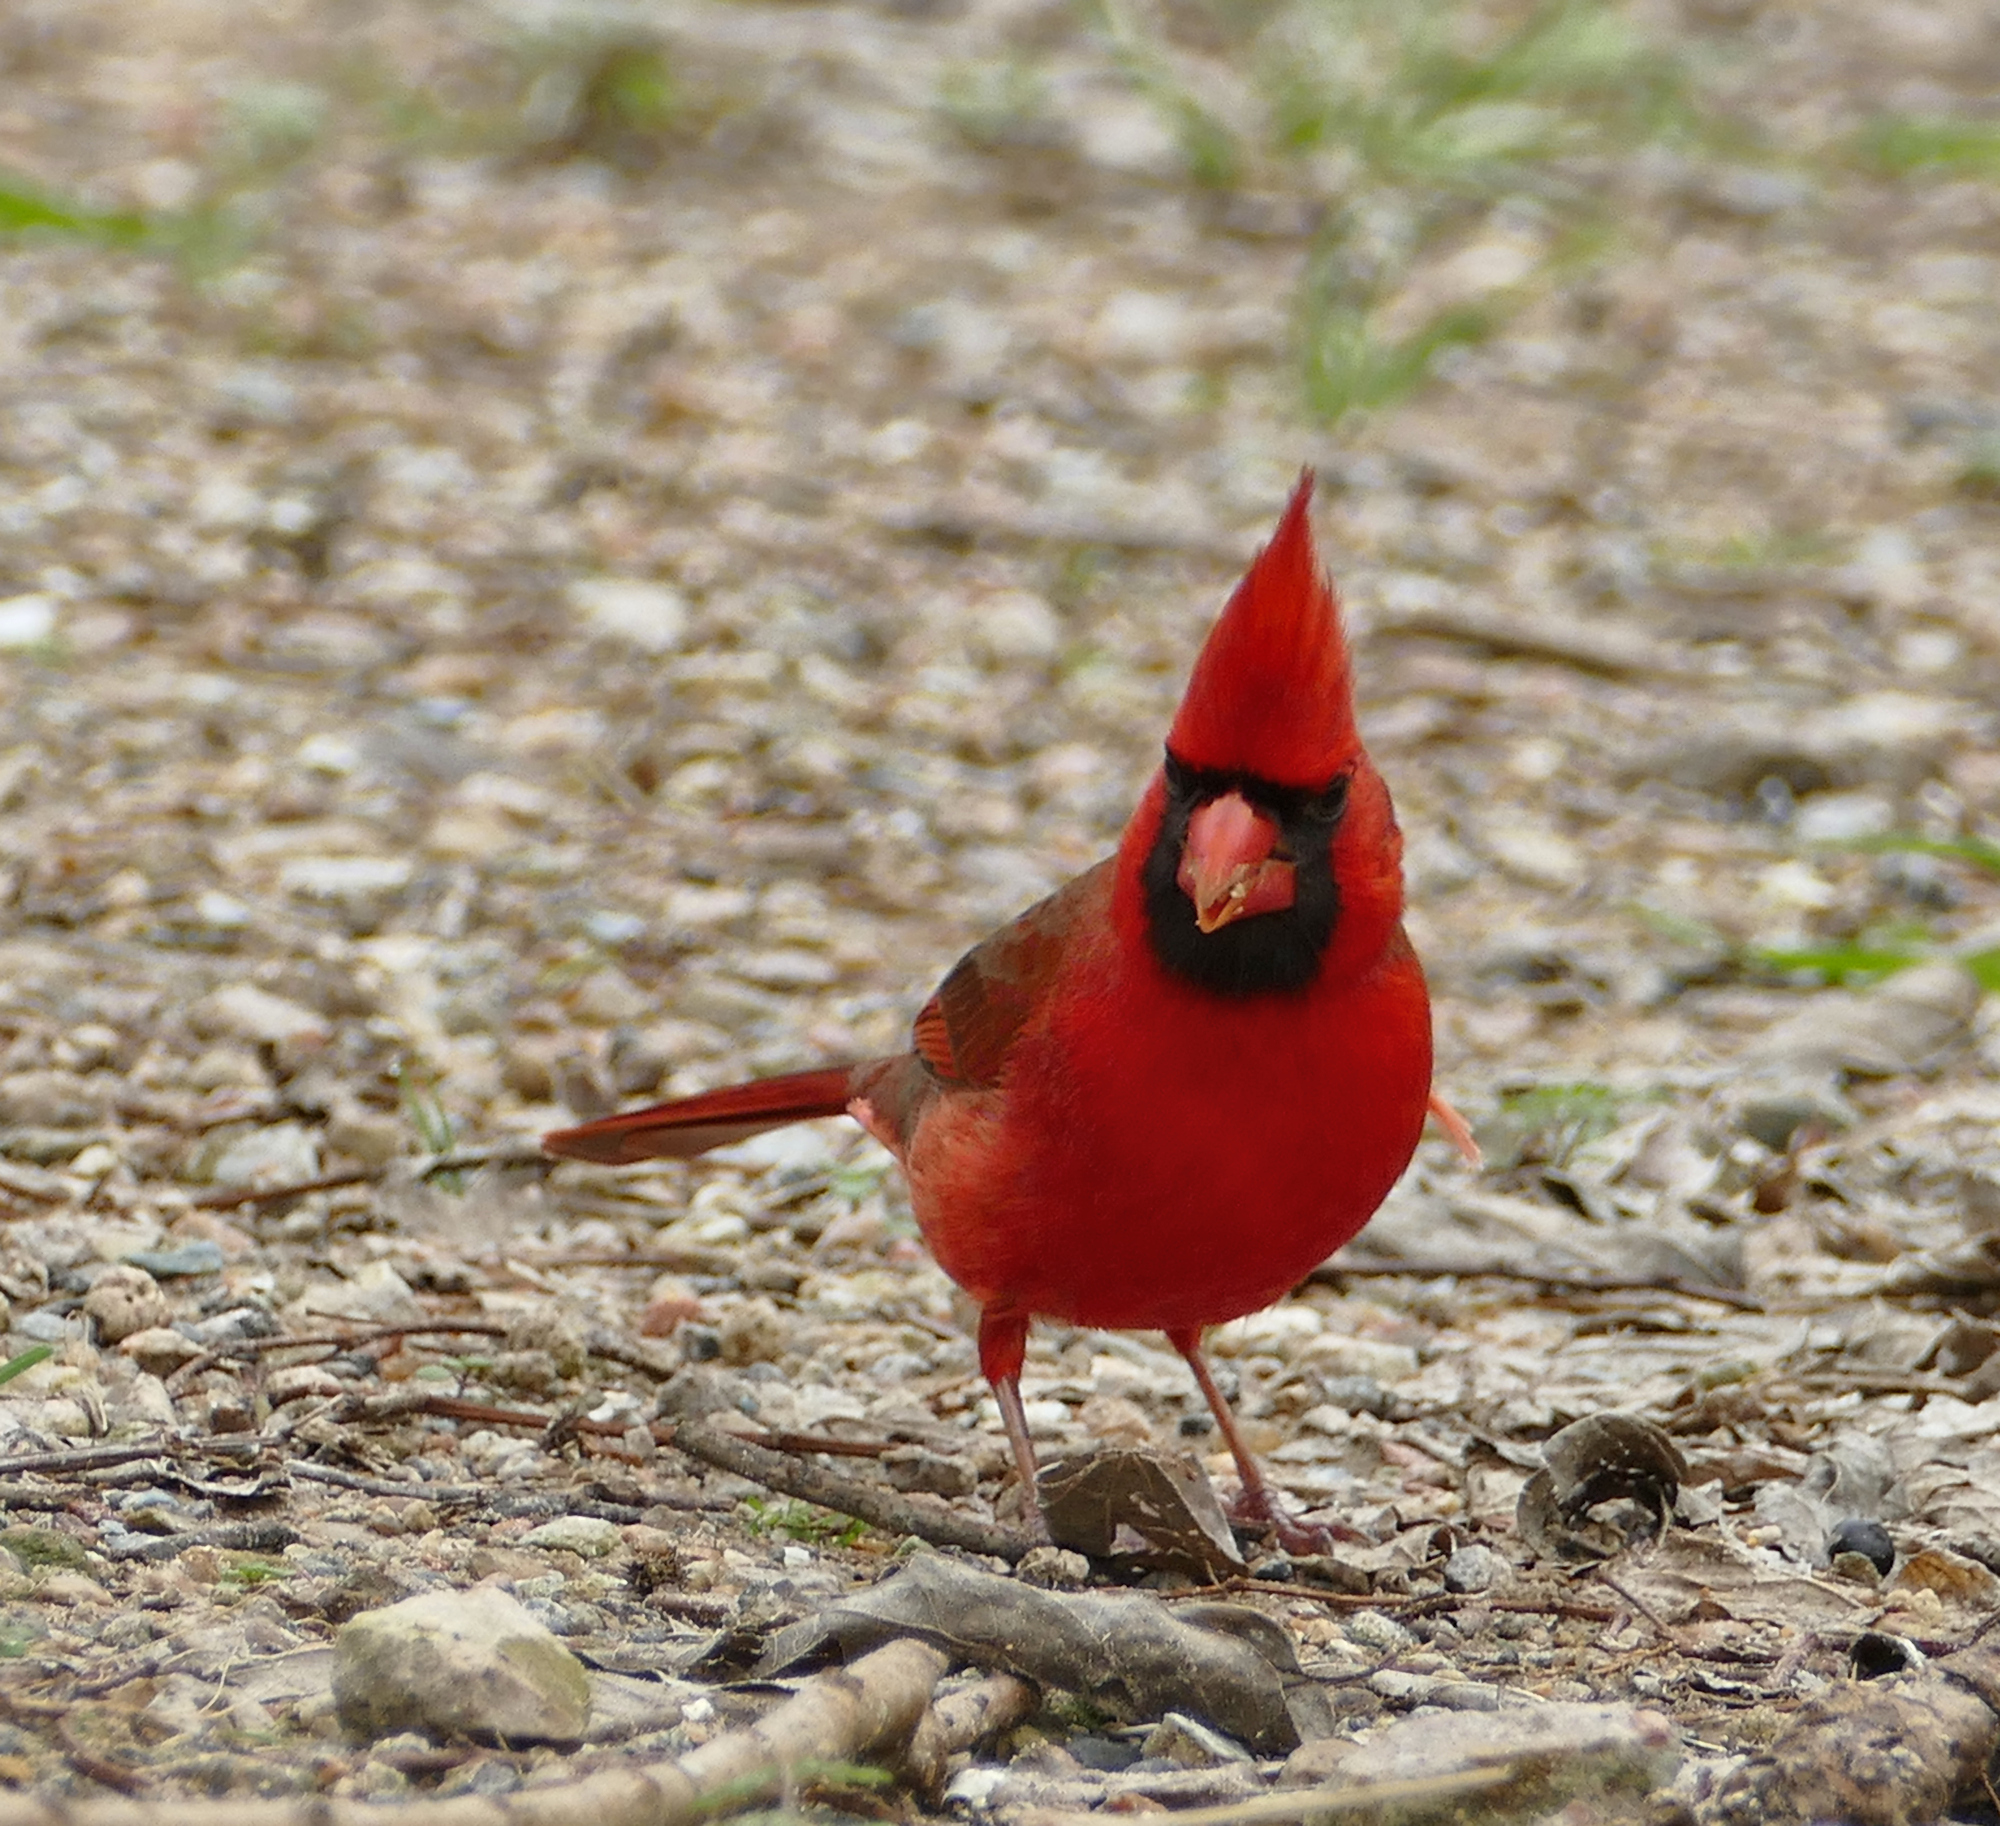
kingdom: Animalia
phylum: Chordata
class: Aves
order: Passeriformes
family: Cardinalidae
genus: Cardinalis
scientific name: Cardinalis cardinalis
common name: Northern cardinal
